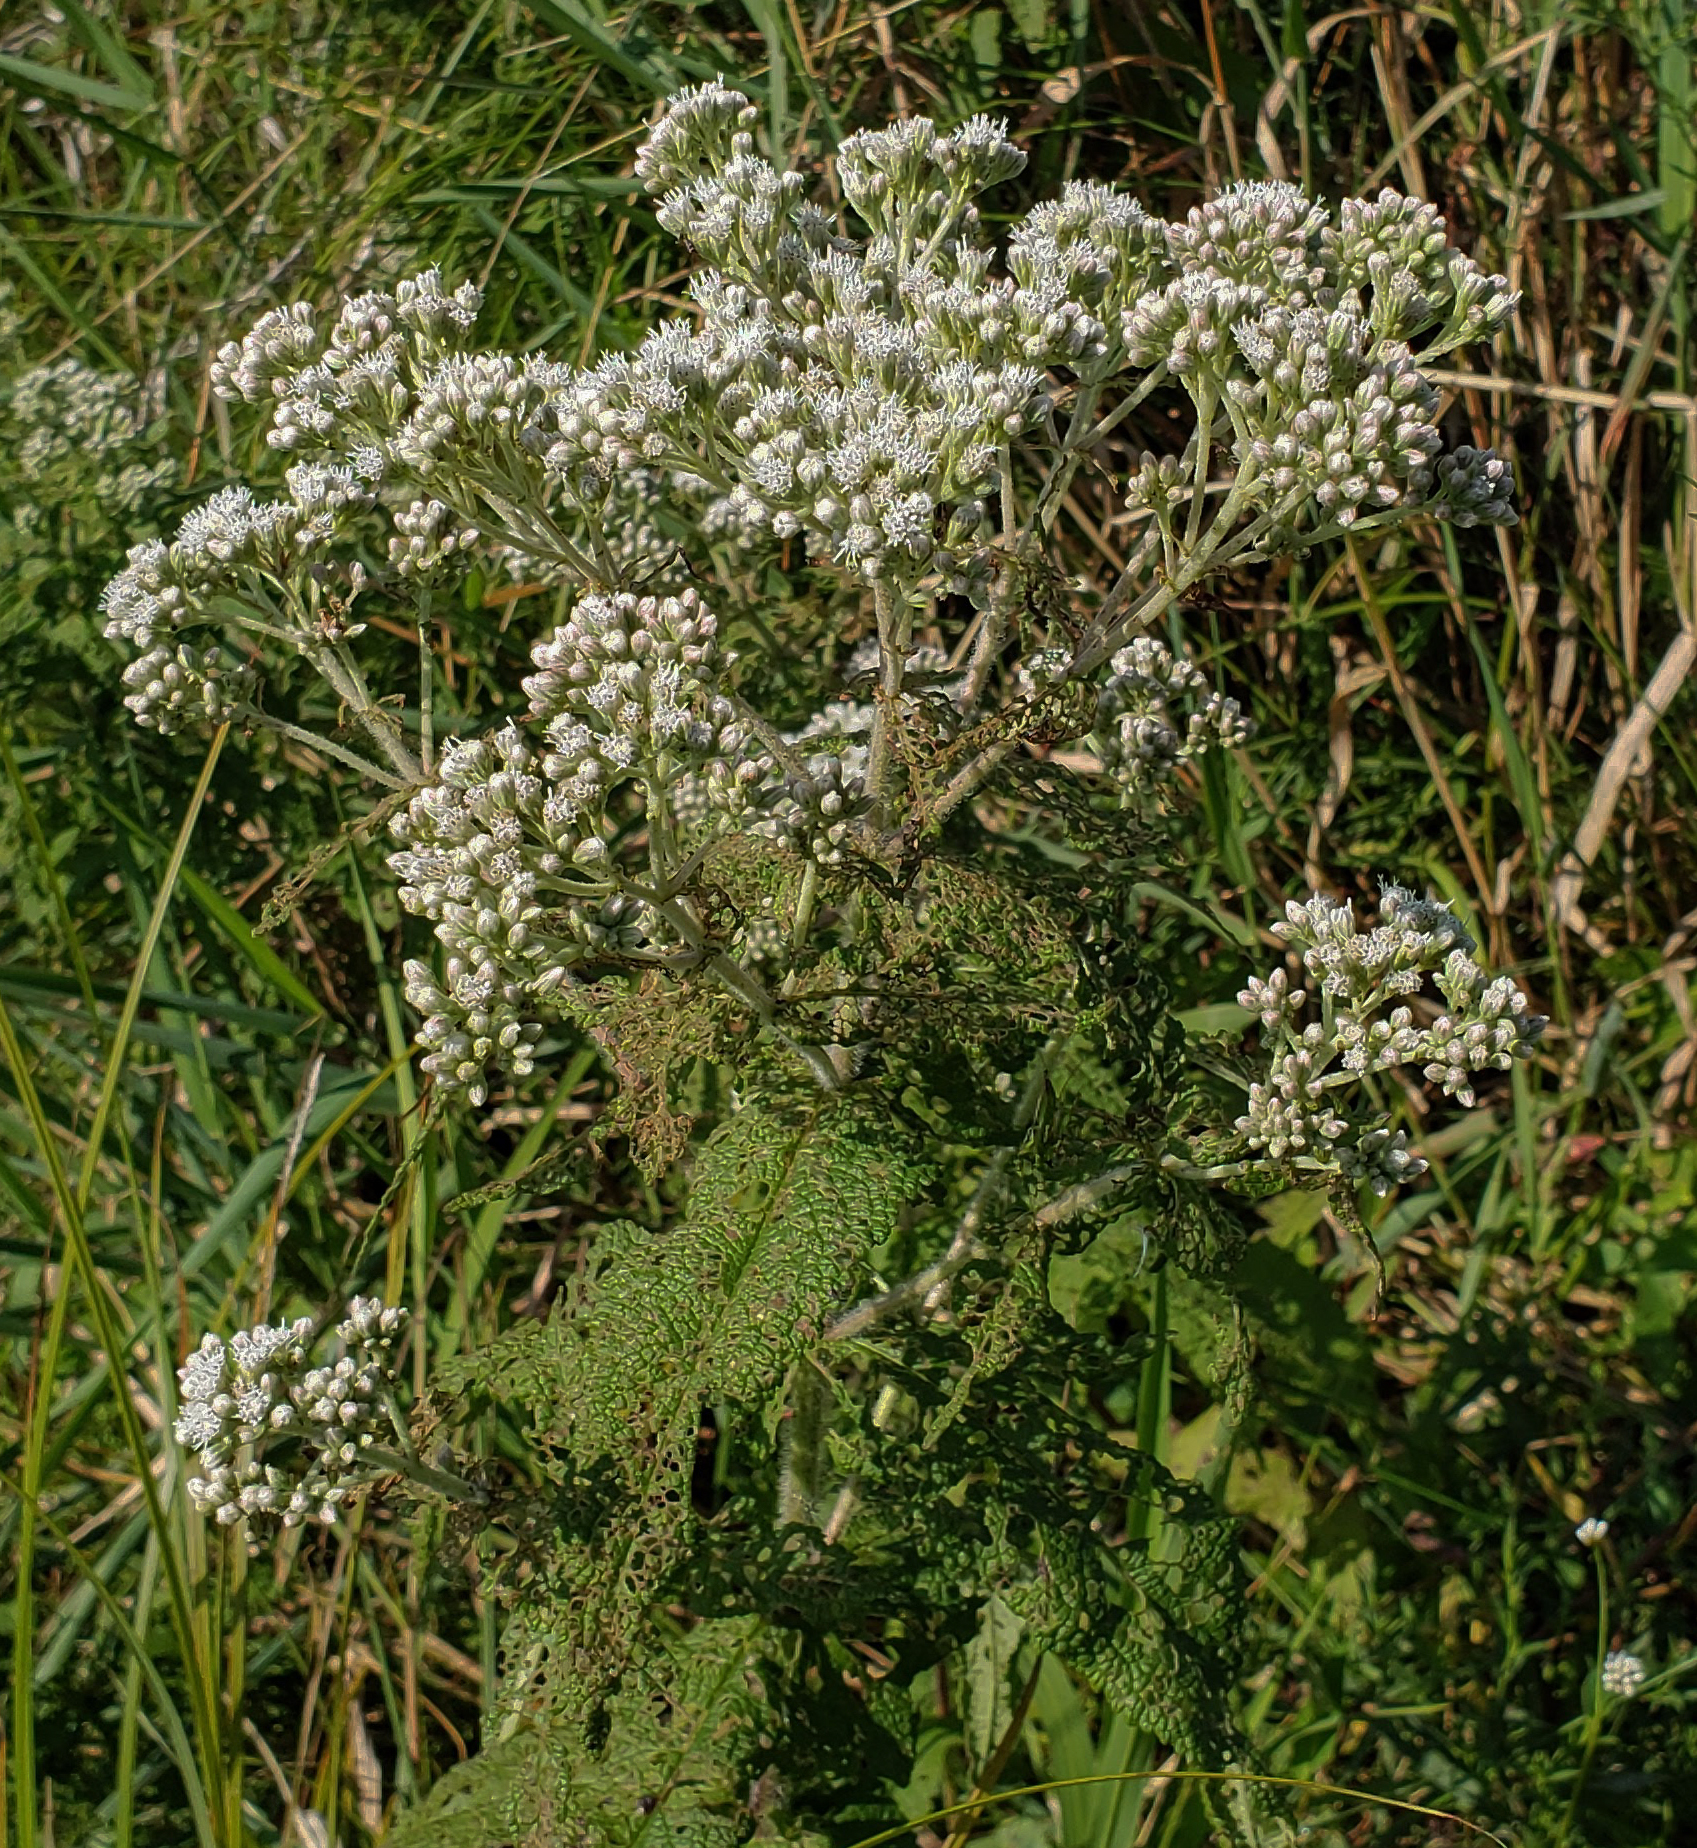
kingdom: Plantae
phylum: Tracheophyta
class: Magnoliopsida
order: Asterales
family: Asteraceae
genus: Eupatorium
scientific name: Eupatorium perfoliatum
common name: Boneset
